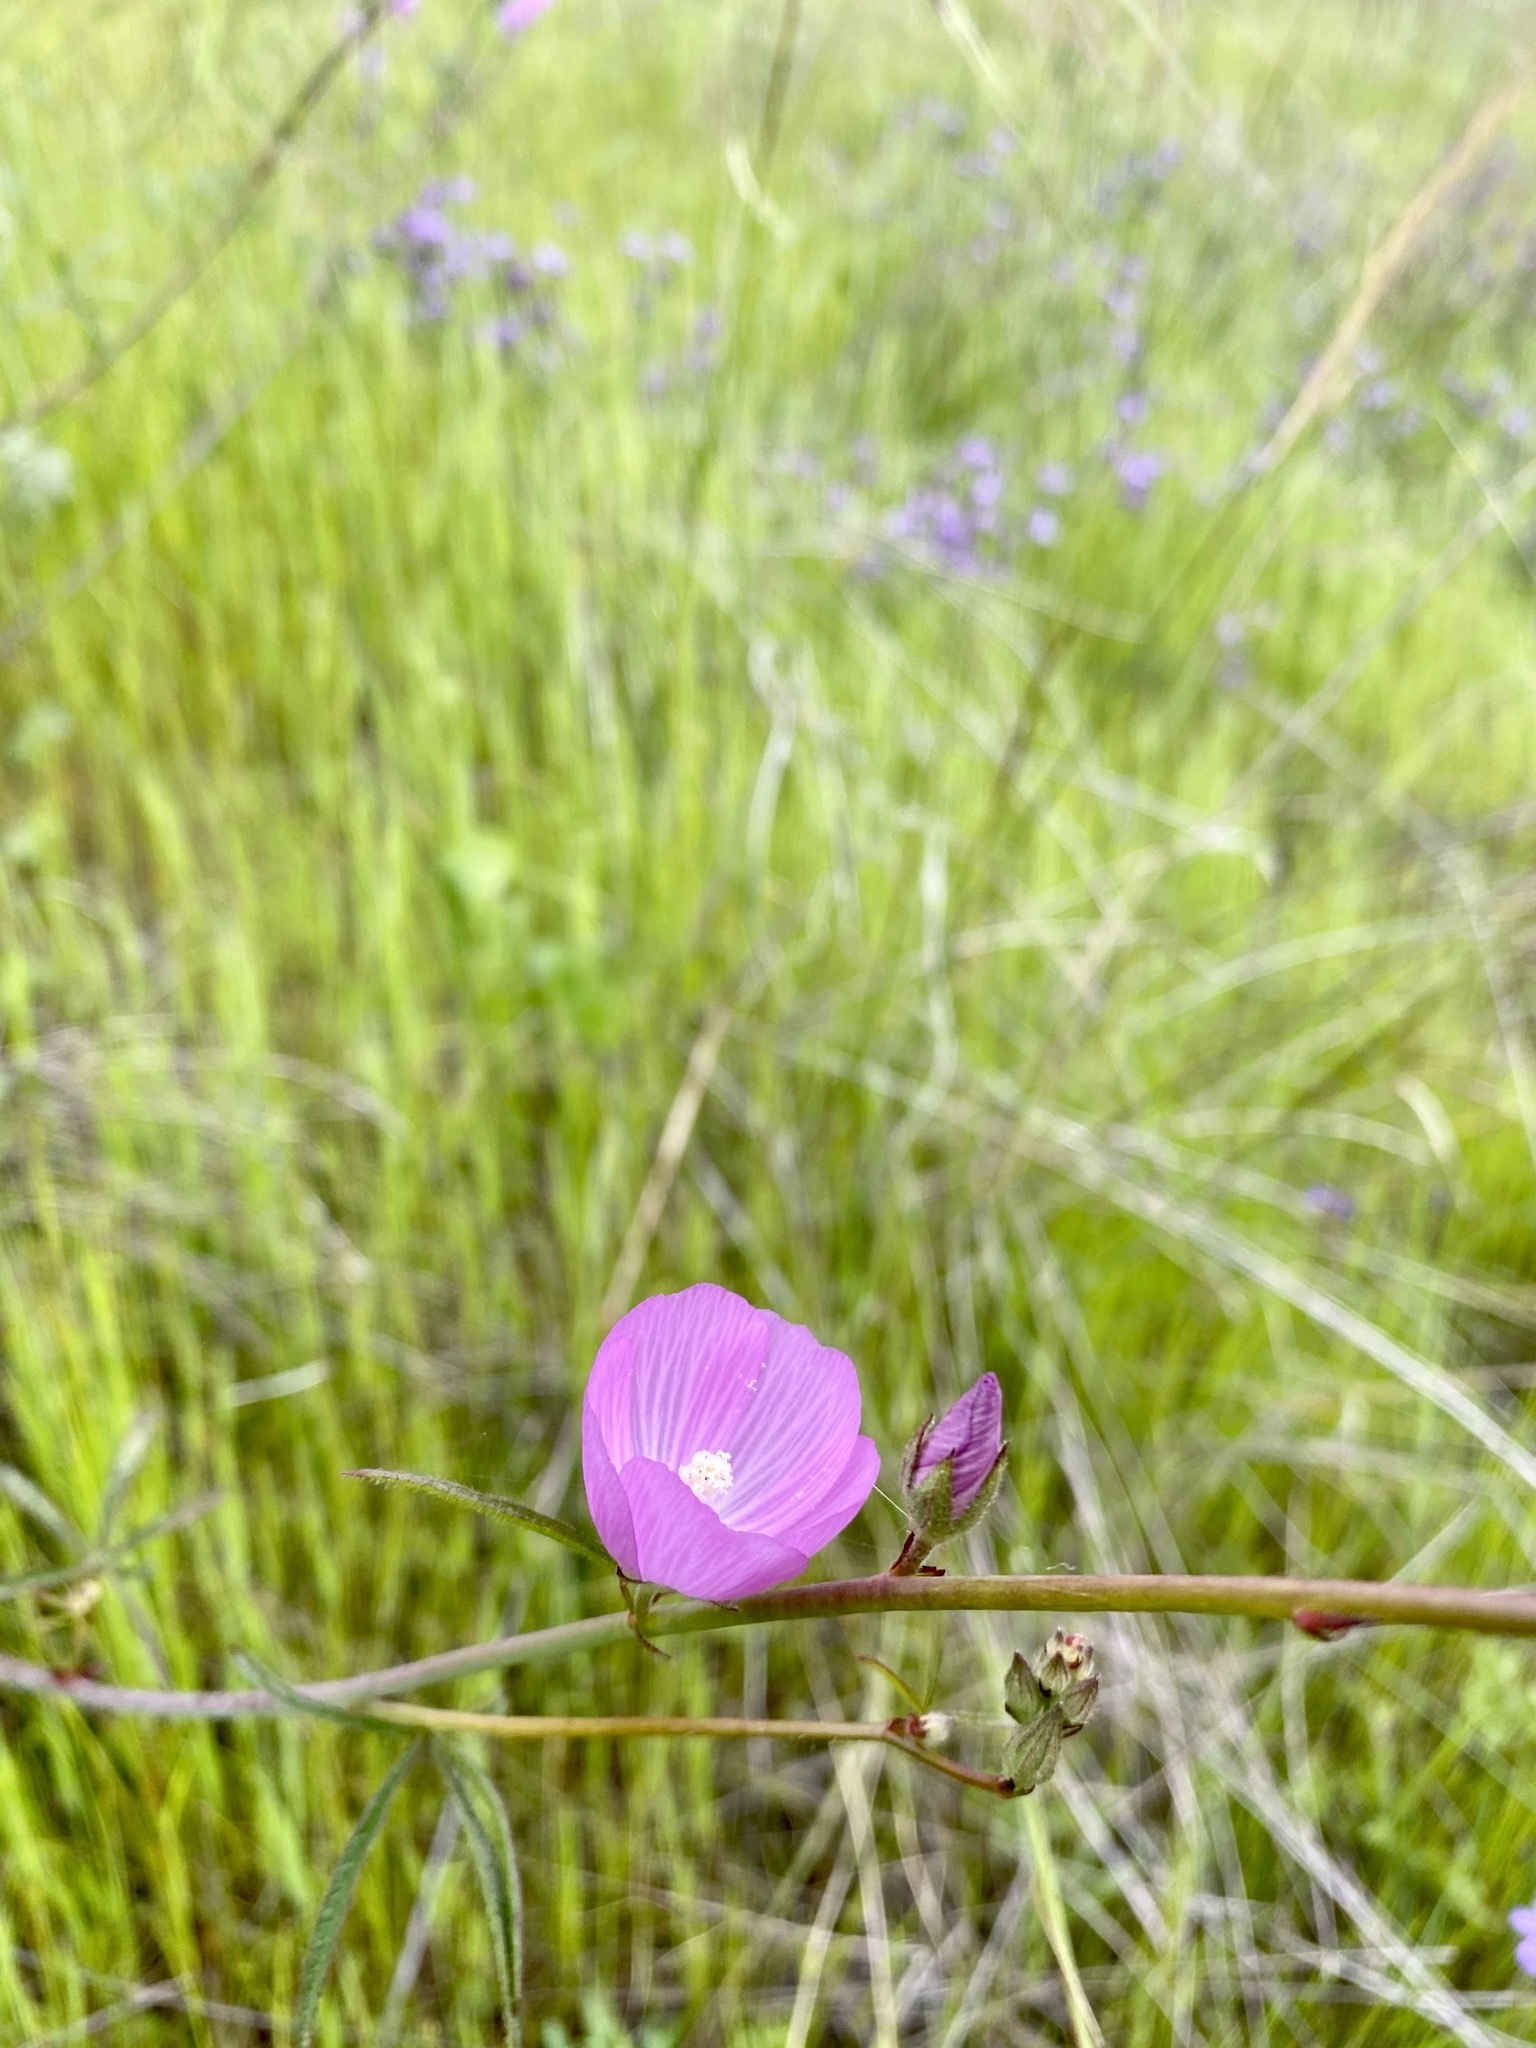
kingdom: Plantae
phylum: Tracheophyta
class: Magnoliopsida
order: Malvales
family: Malvaceae
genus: Sidalcea
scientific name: Sidalcea sparsifolia
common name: Southern checkerbloom
